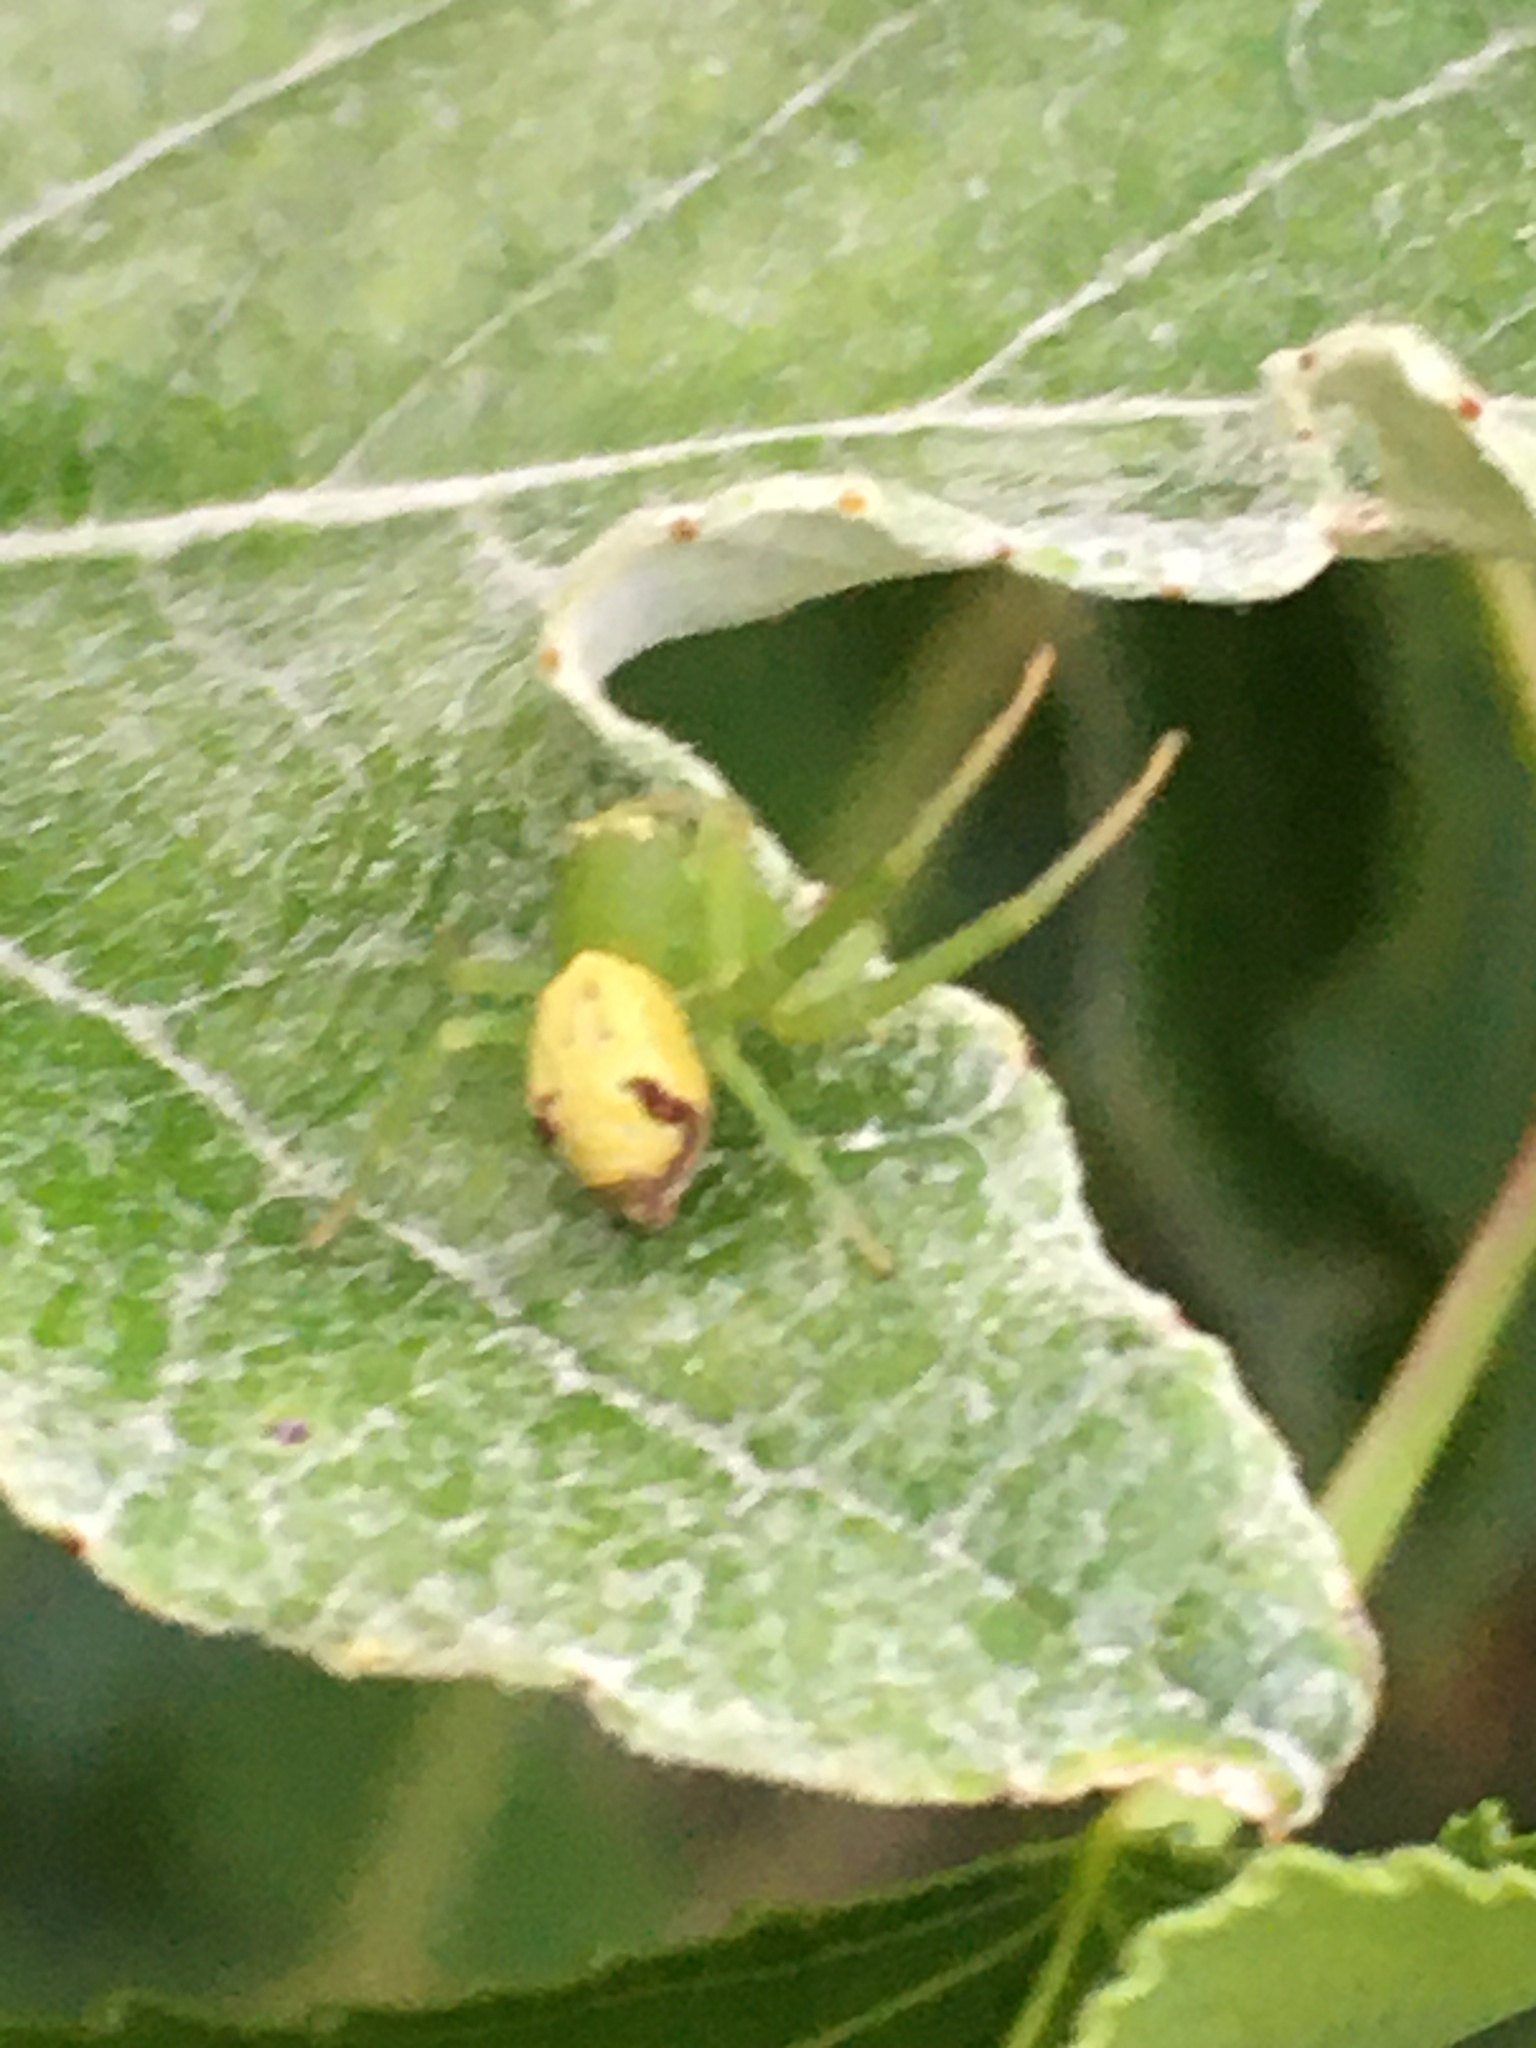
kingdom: Animalia
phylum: Arthropoda
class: Arachnida
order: Araneae
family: Thomisidae
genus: Ebrechtella
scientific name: Ebrechtella tricuspidata
